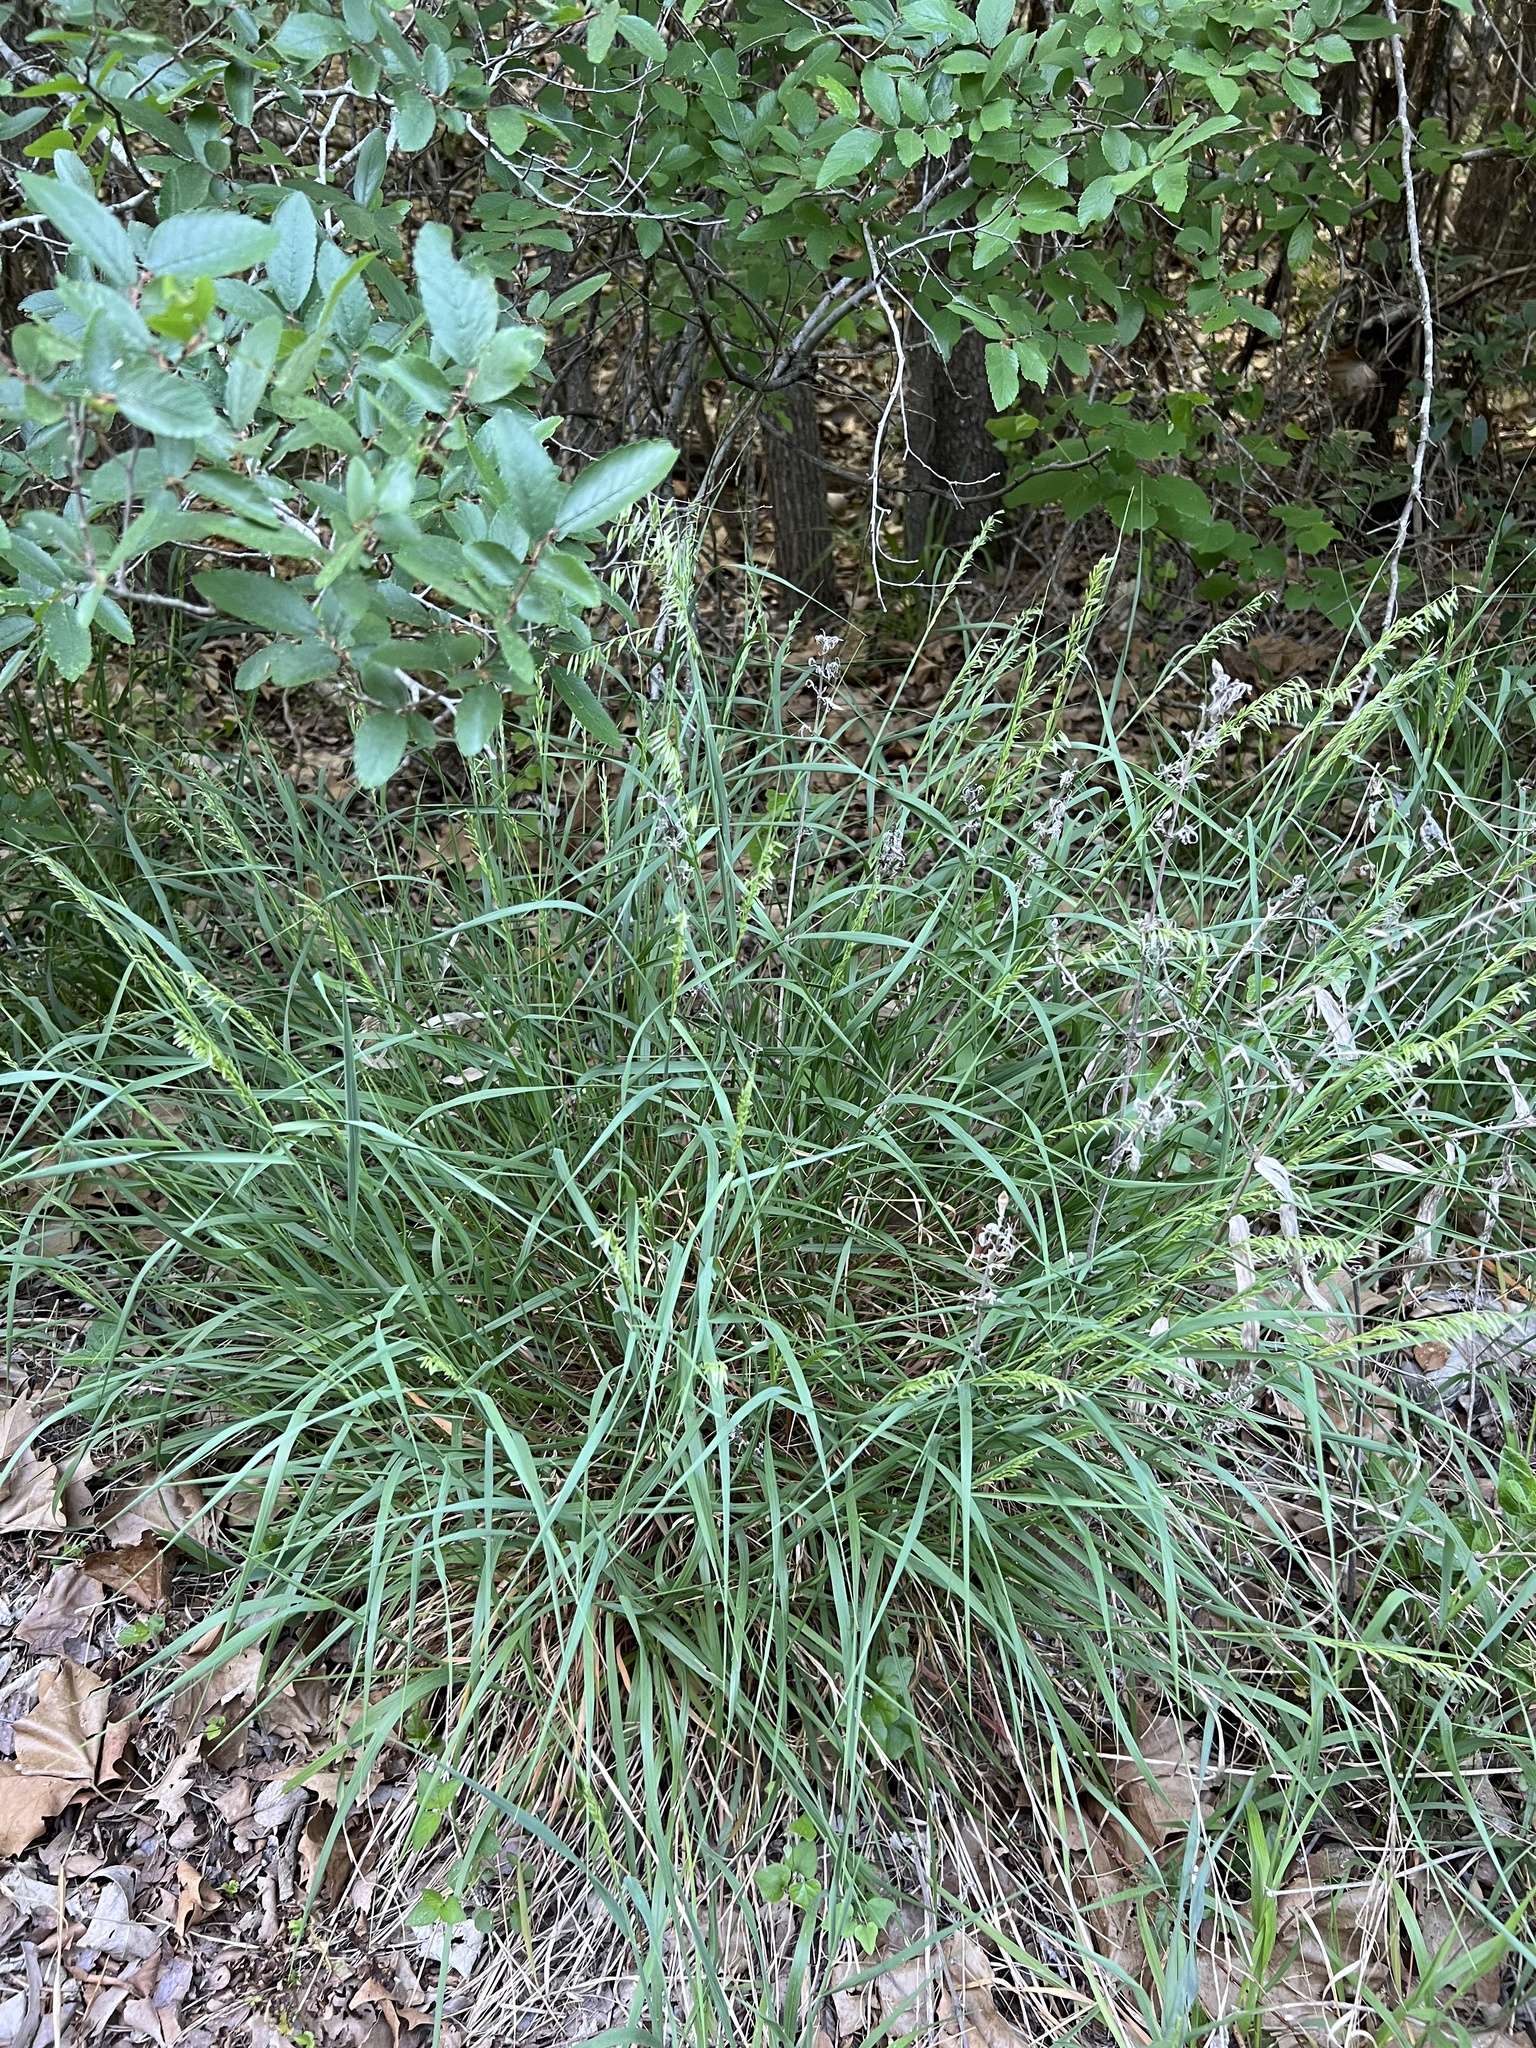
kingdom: Plantae
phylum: Tracheophyta
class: Liliopsida
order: Poales
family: Poaceae
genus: Melica
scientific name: Melica nitens
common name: Three-flower melic
